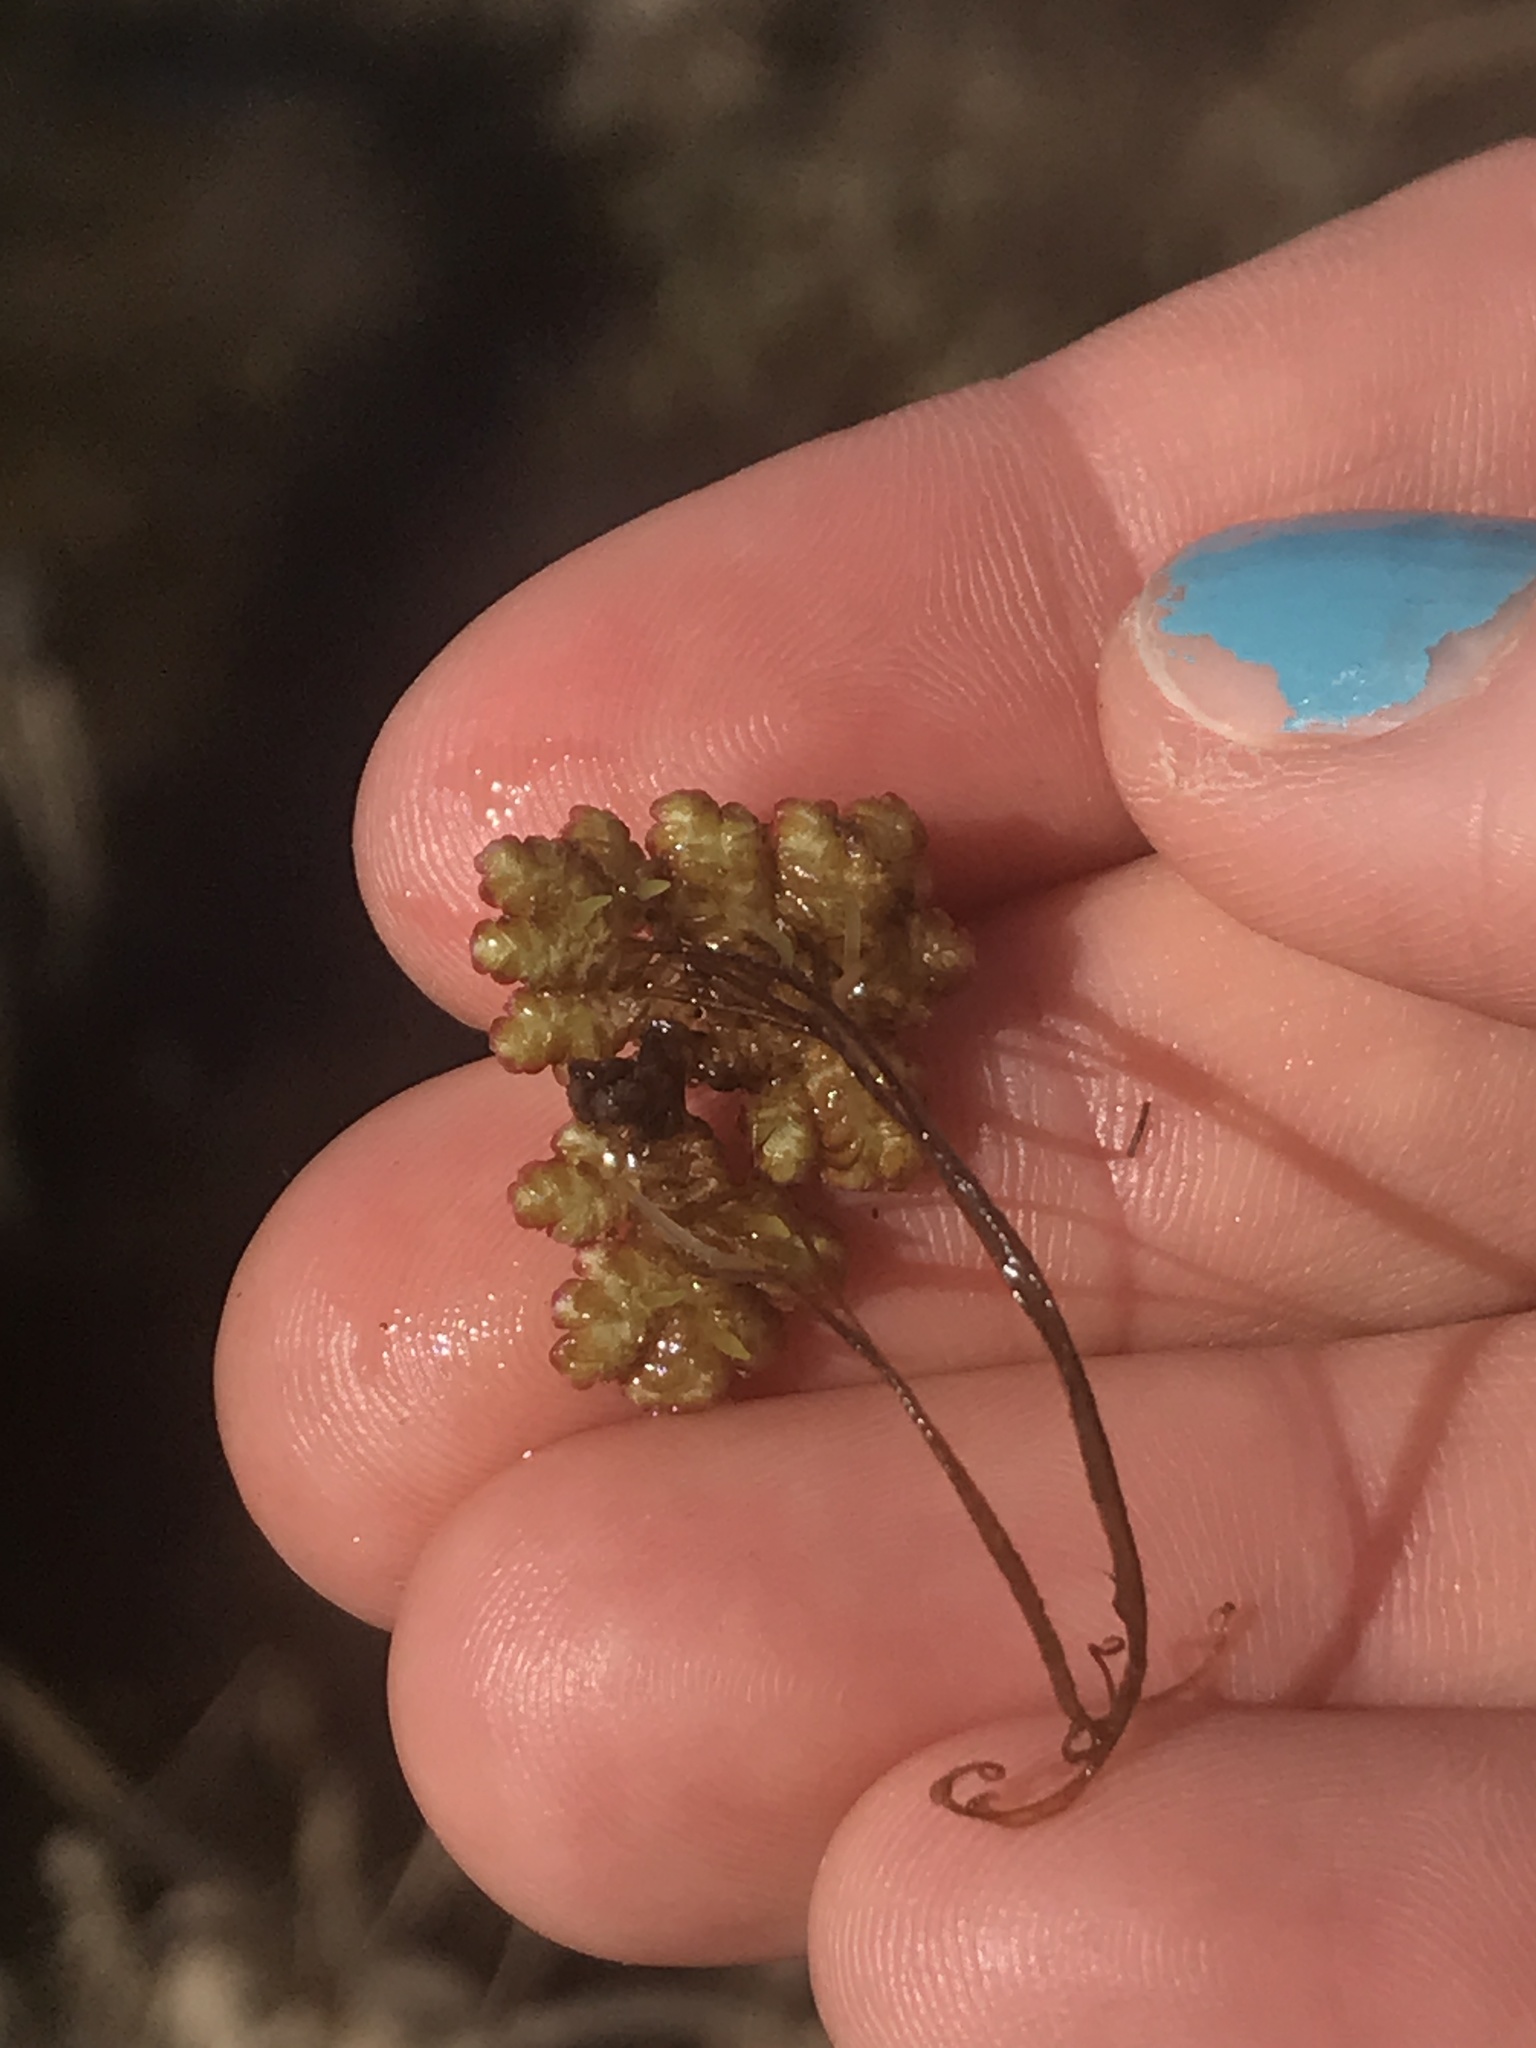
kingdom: Plantae
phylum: Tracheophyta
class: Polypodiopsida
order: Salviniales
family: Salviniaceae
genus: Azolla
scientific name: Azolla filiculoides
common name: Water fern
